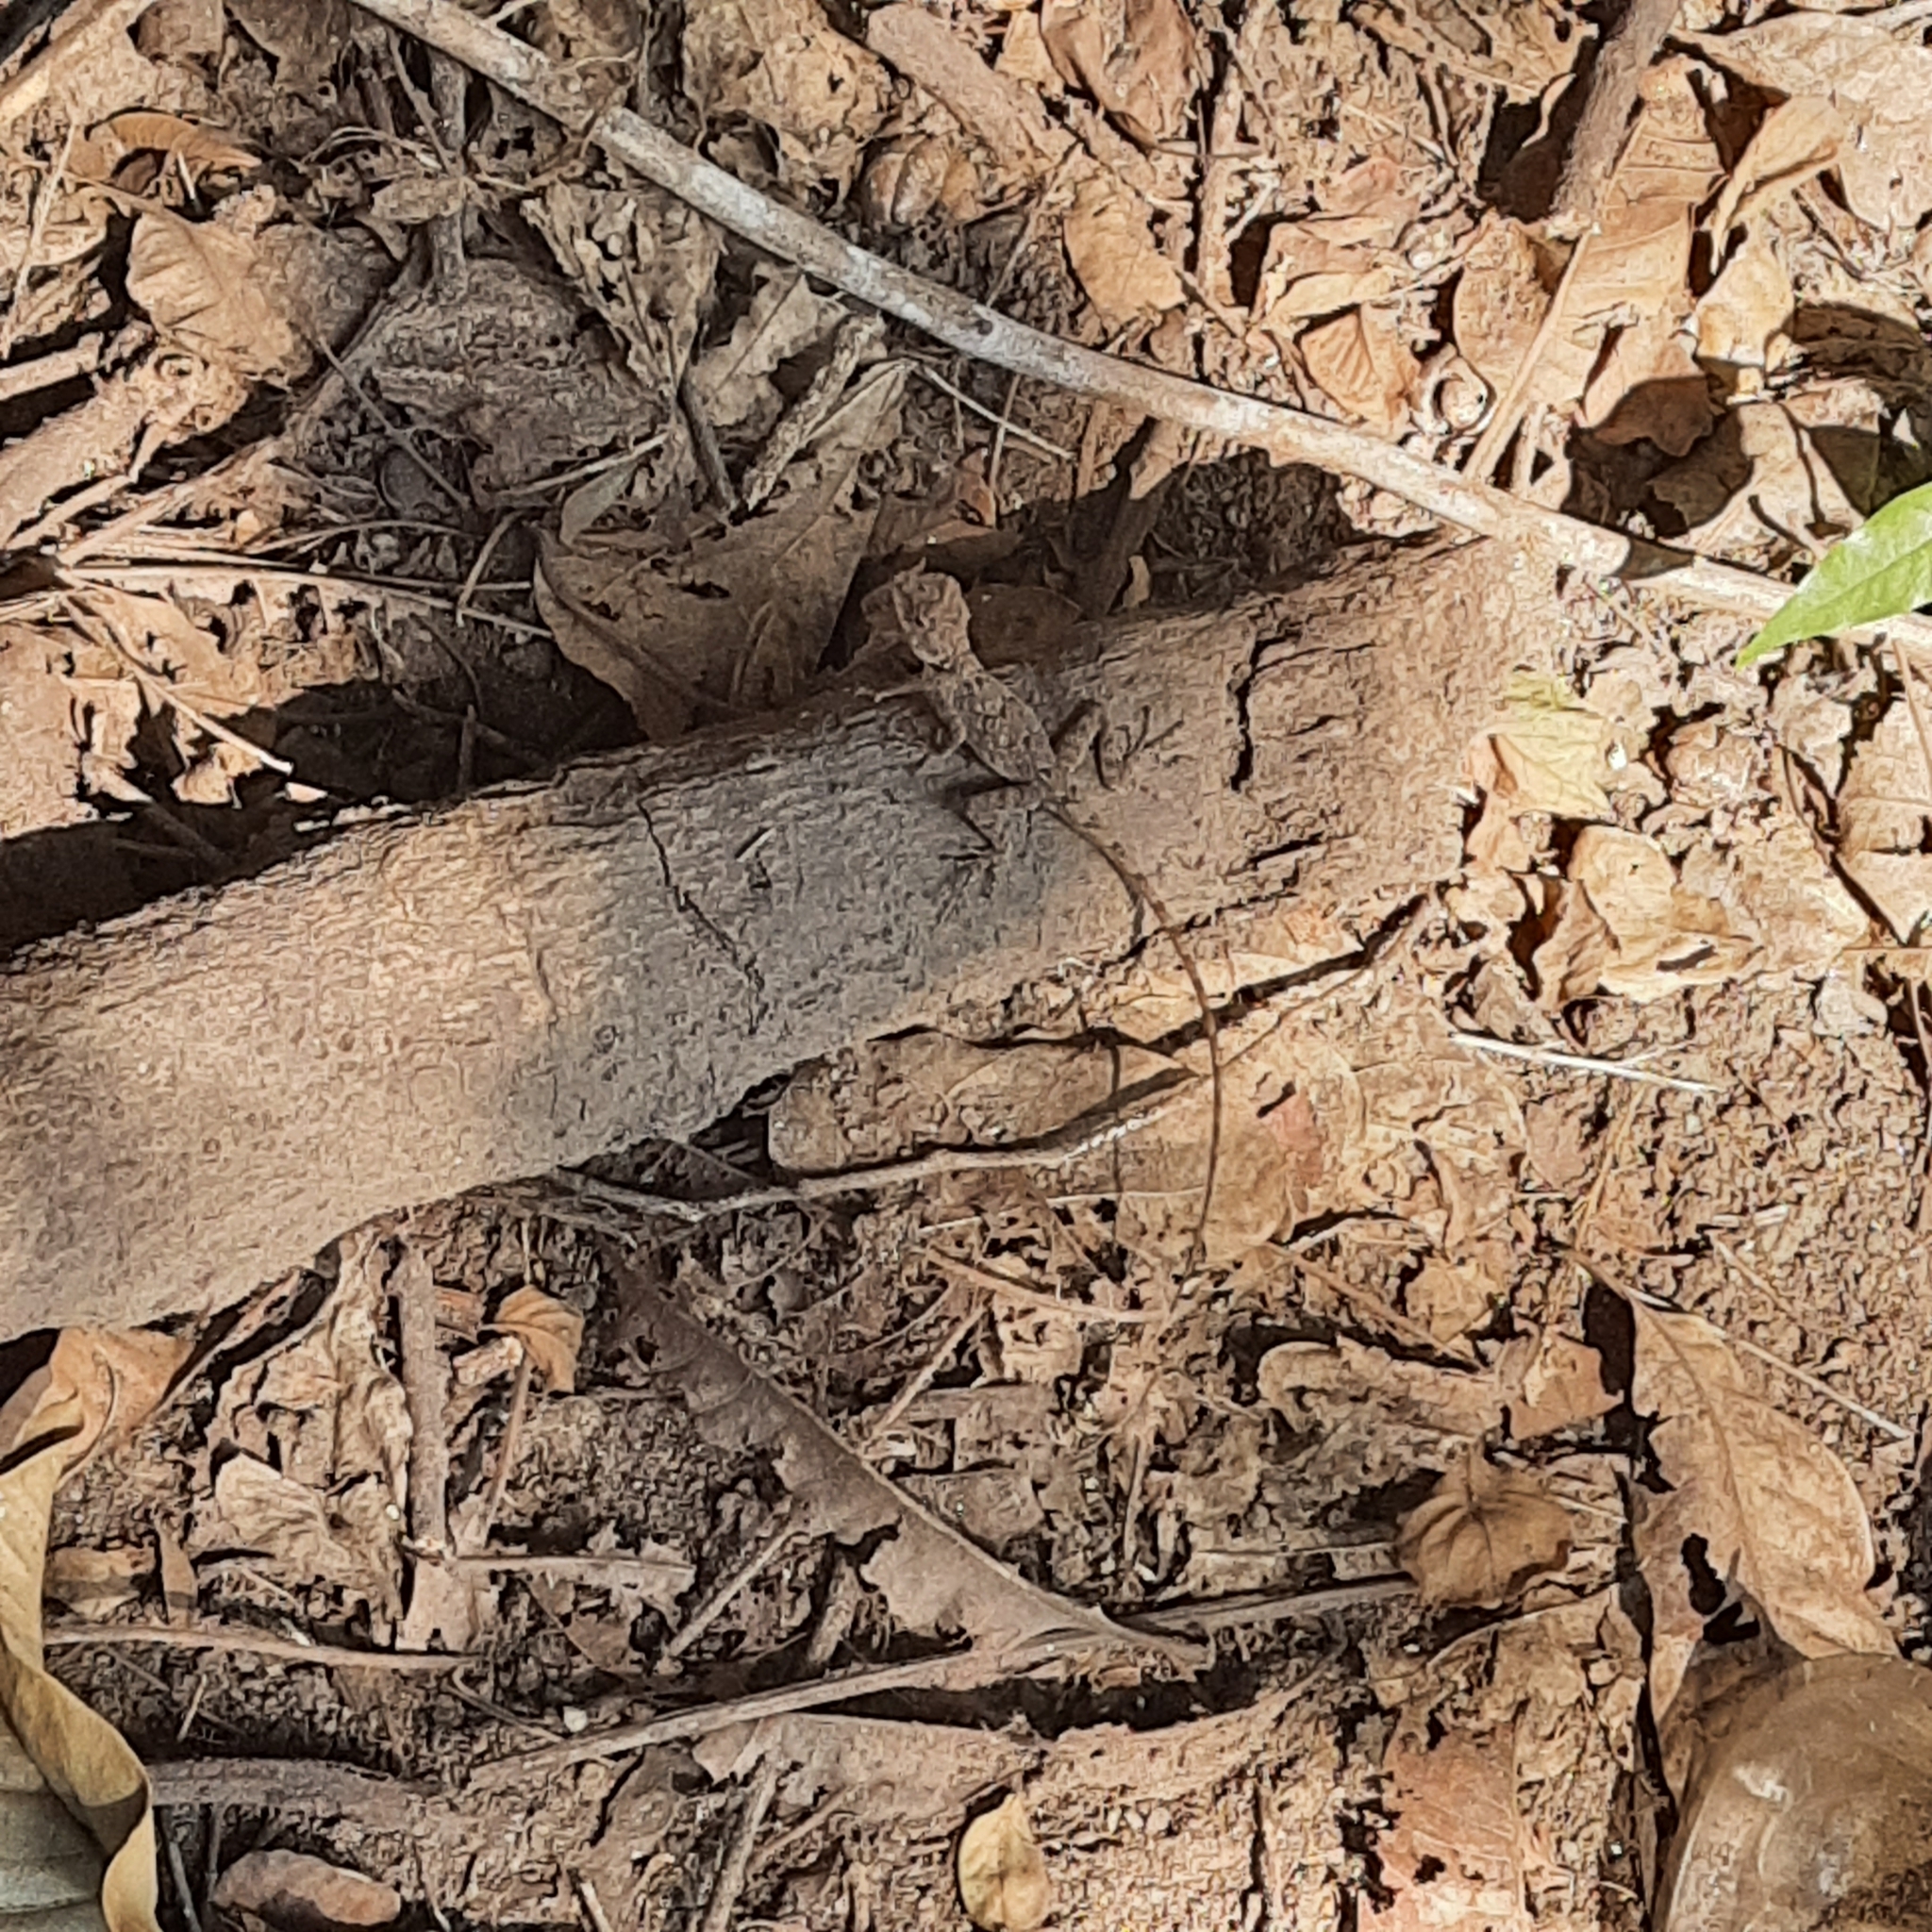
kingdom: Animalia
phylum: Chordata
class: Squamata
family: Agamidae
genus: Calotes
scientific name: Calotes versicolor
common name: Oriental garden lizard
